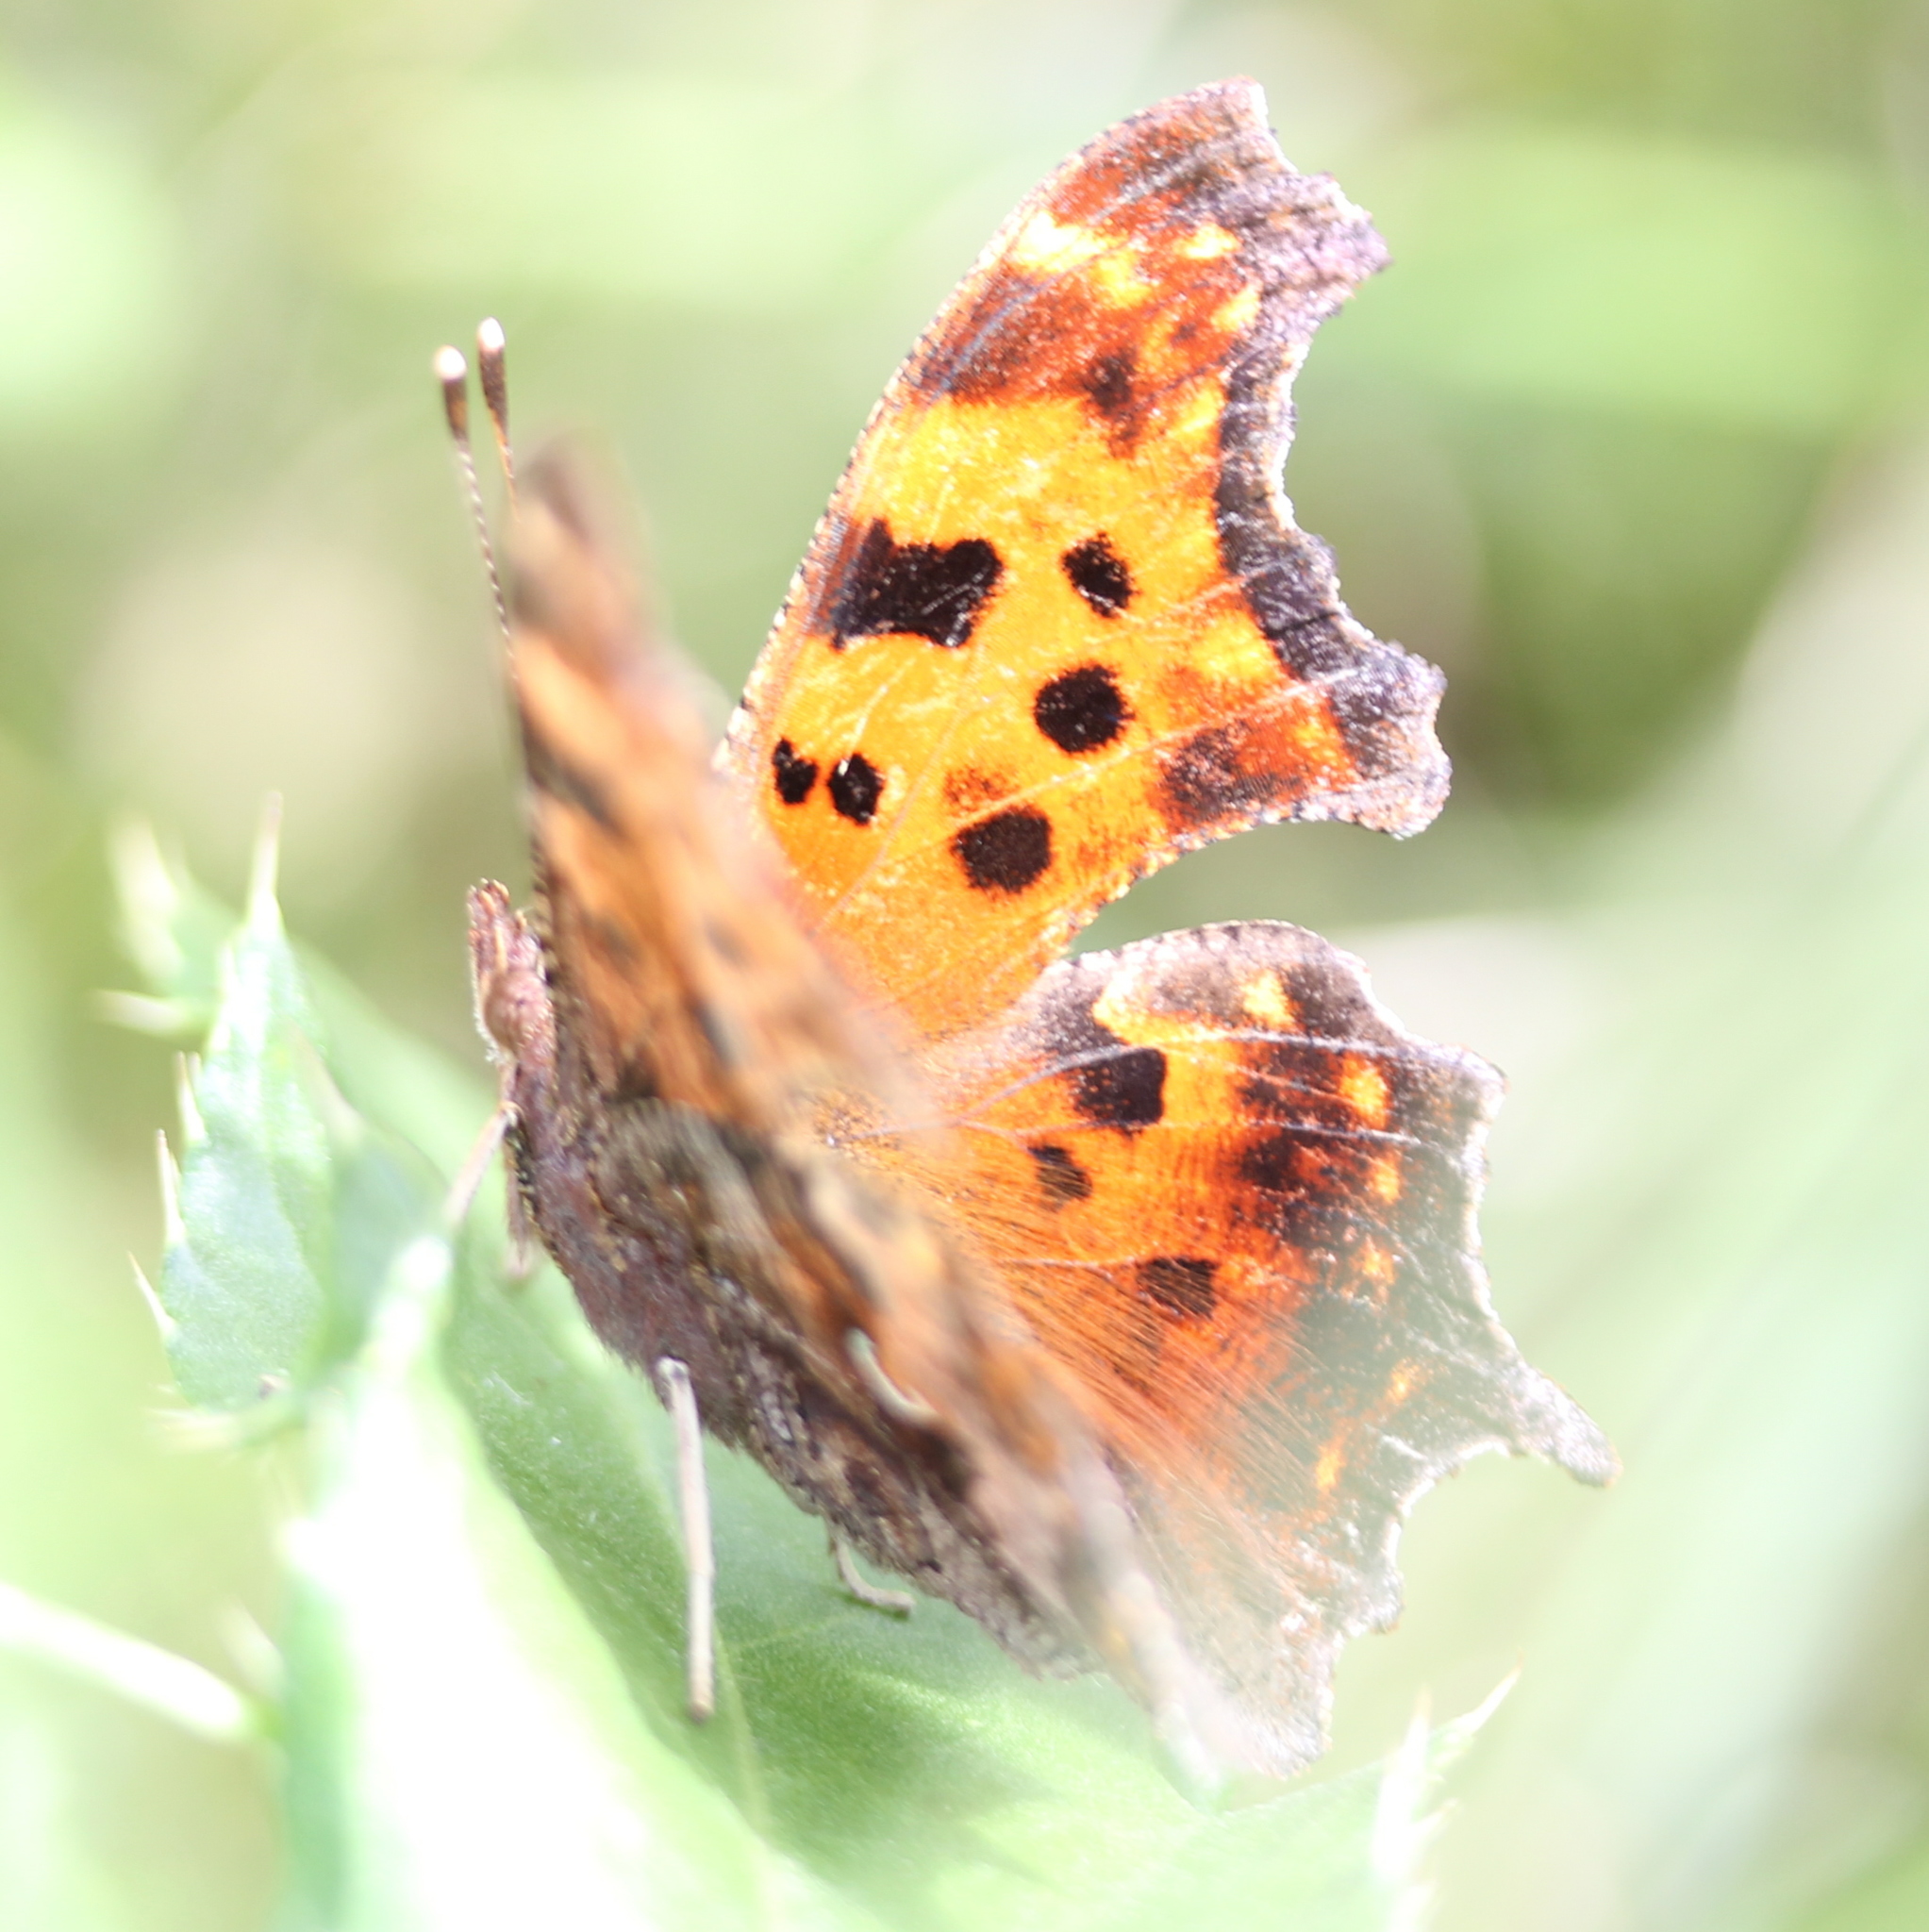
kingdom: Animalia
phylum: Arthropoda
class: Insecta
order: Lepidoptera
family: Nymphalidae
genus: Polygonia
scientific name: Polygonia comma
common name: Eastern comma
